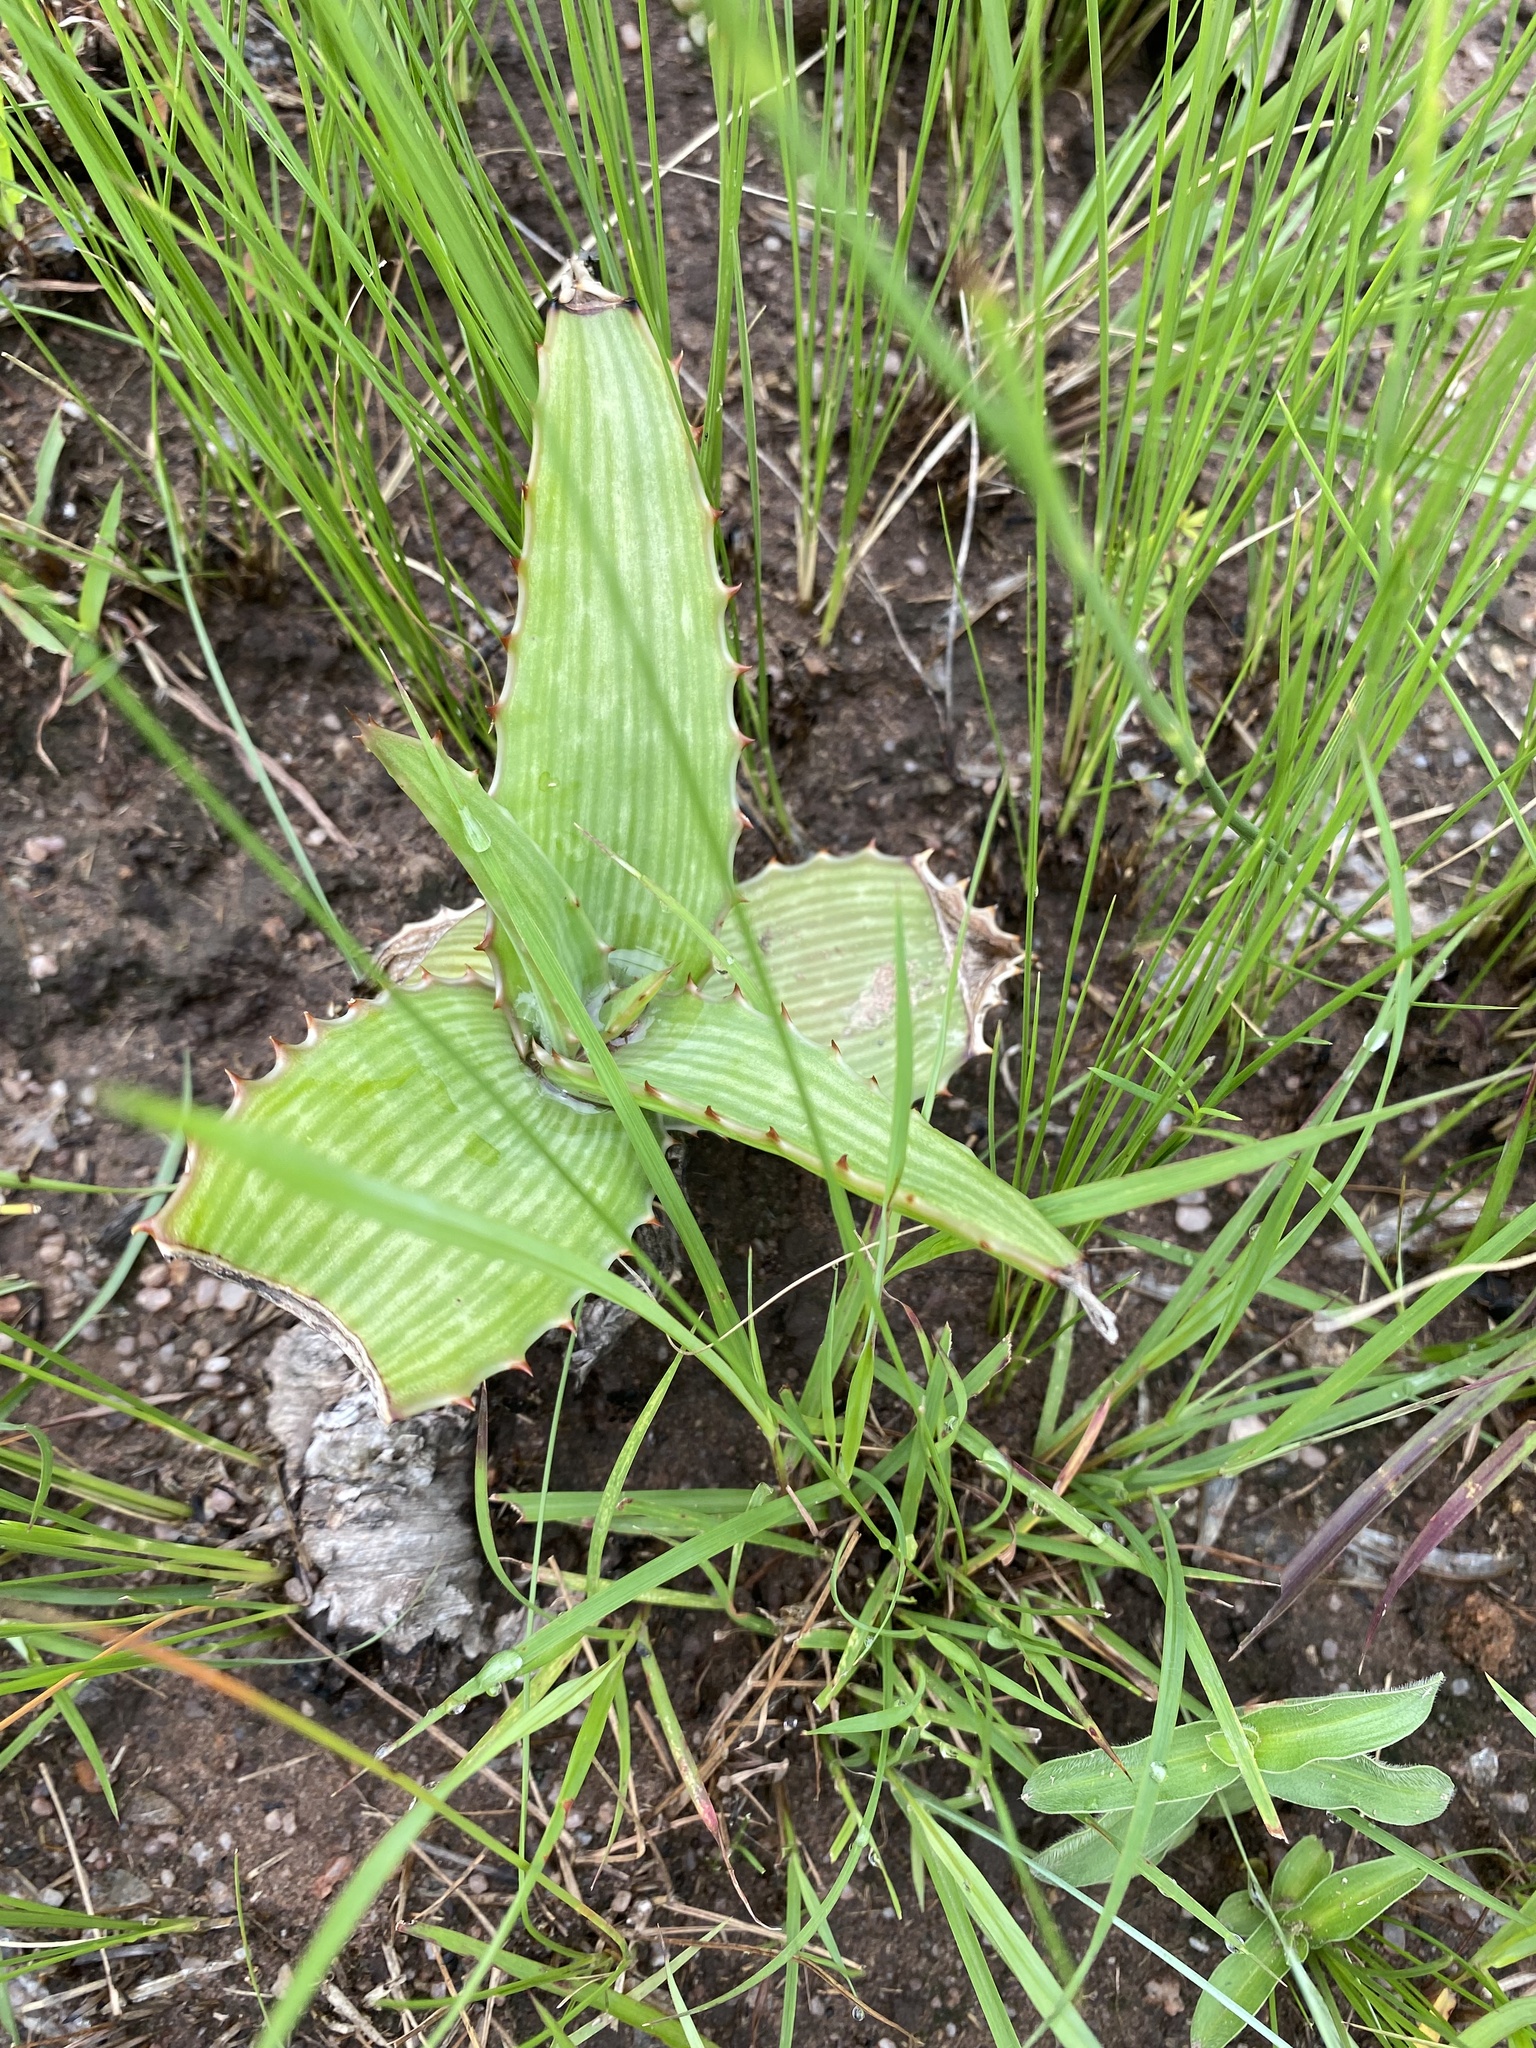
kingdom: Plantae
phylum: Tracheophyta
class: Liliopsida
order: Asparagales
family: Asphodelaceae
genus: Aloe
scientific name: Aloe maculata
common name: Broadleaf aloe
